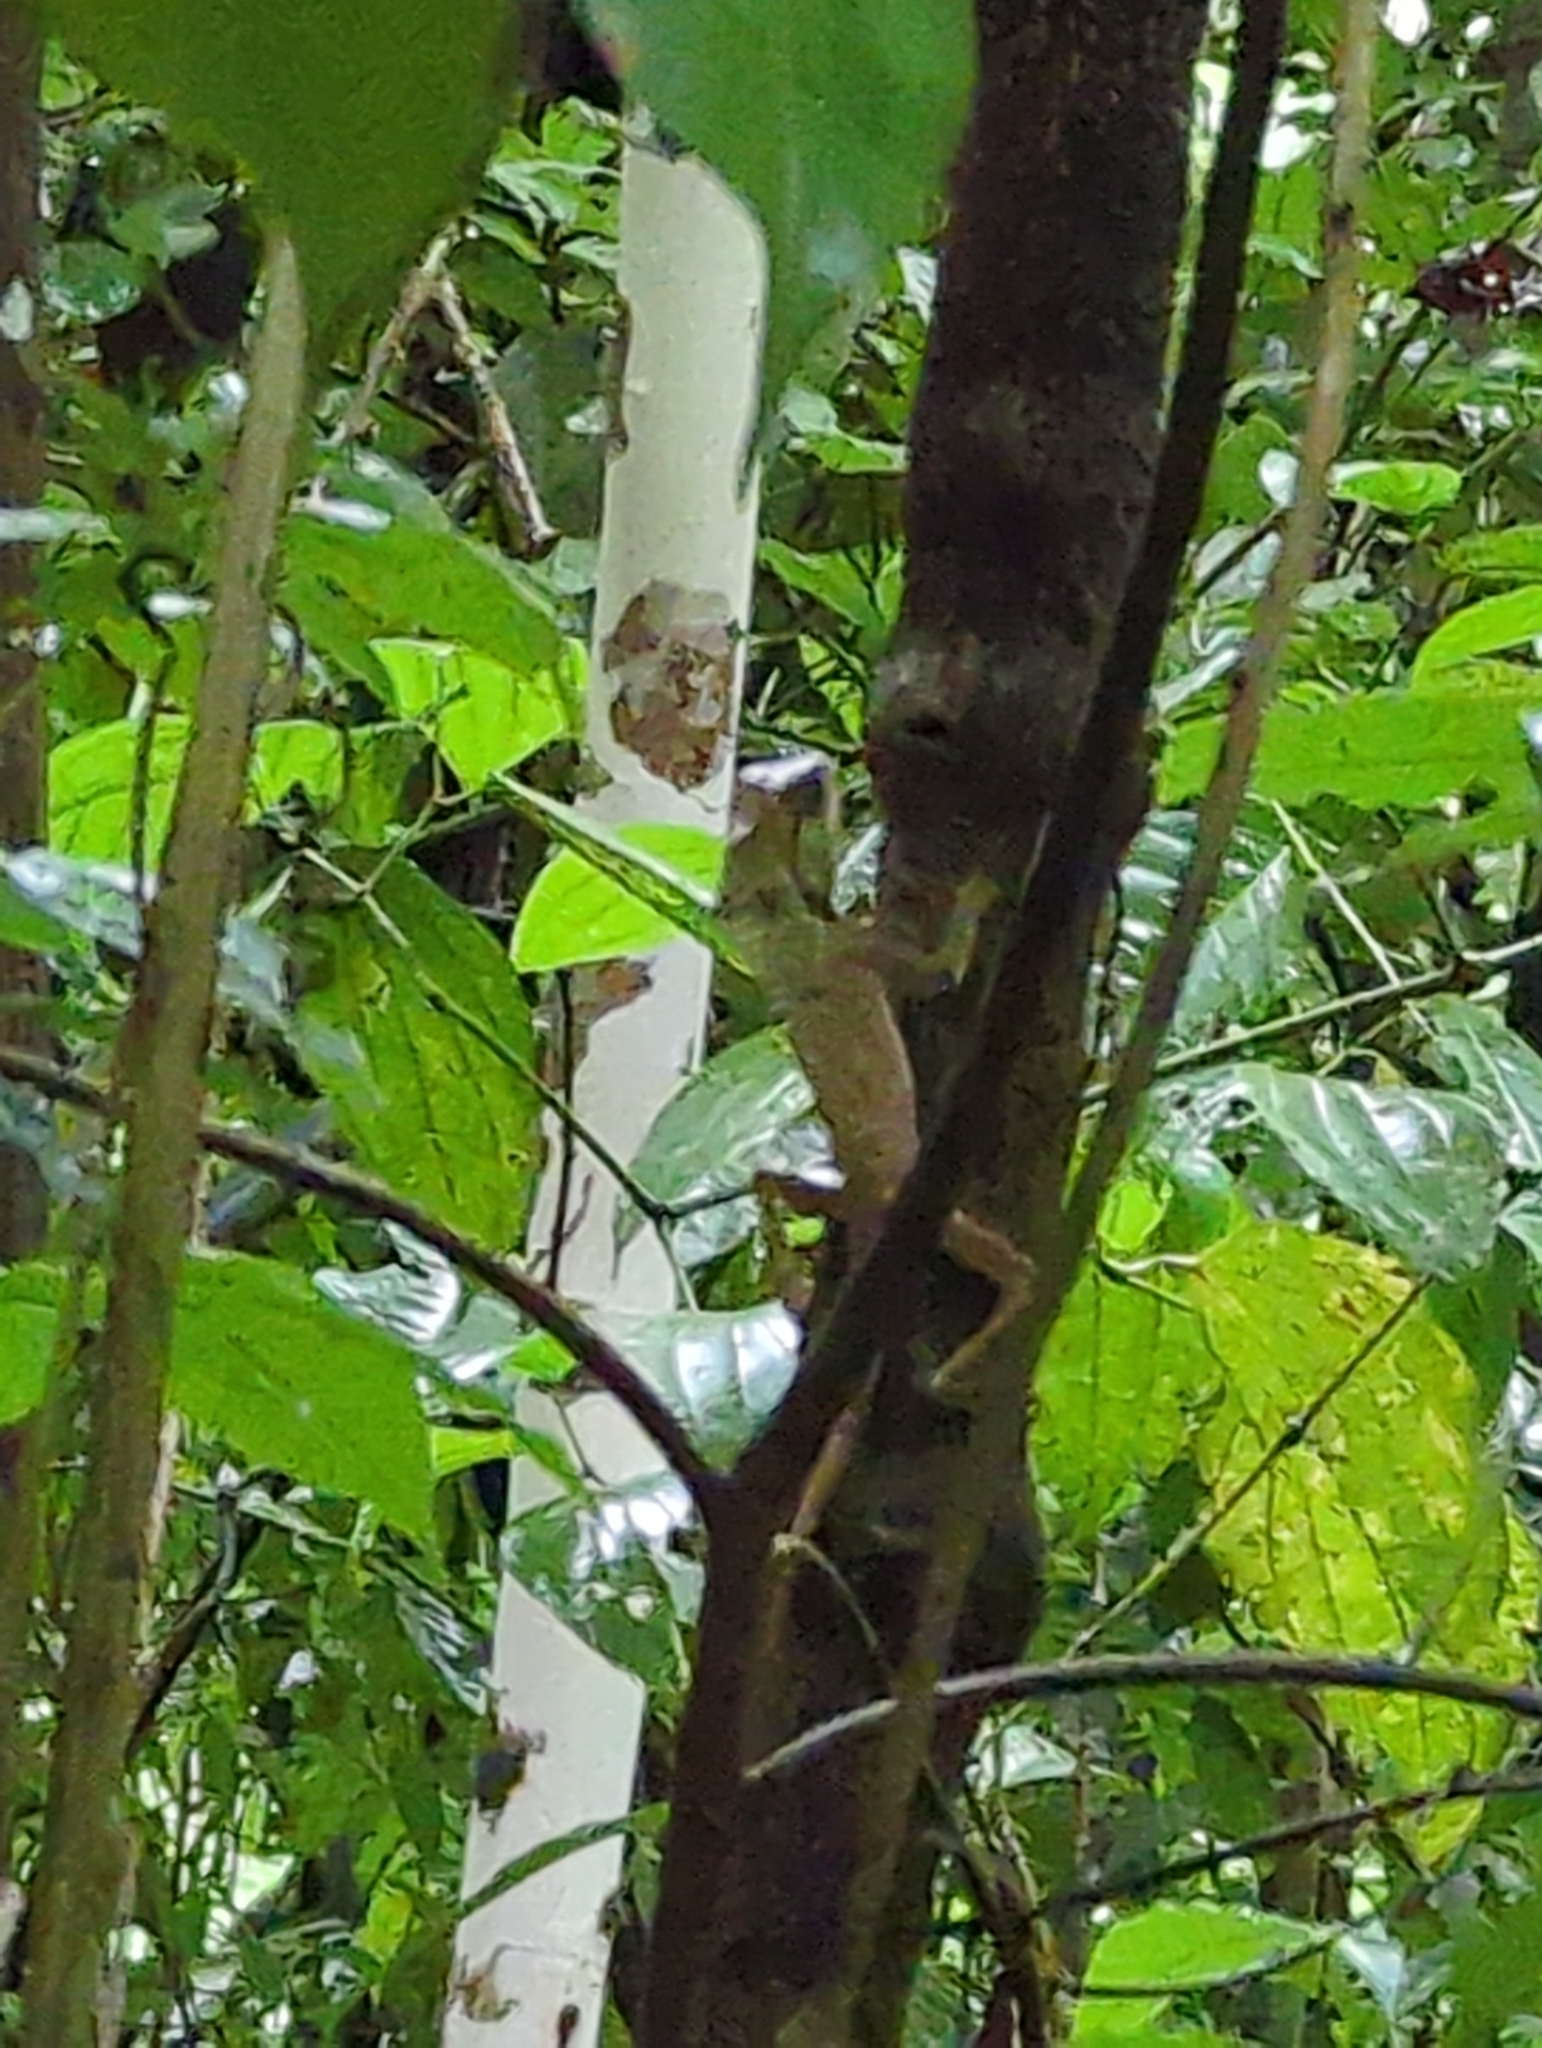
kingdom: Animalia
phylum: Chordata
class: Squamata
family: Corytophanidae
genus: Corytophanes
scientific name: Corytophanes cristatus
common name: Smooth helmeted iguana
